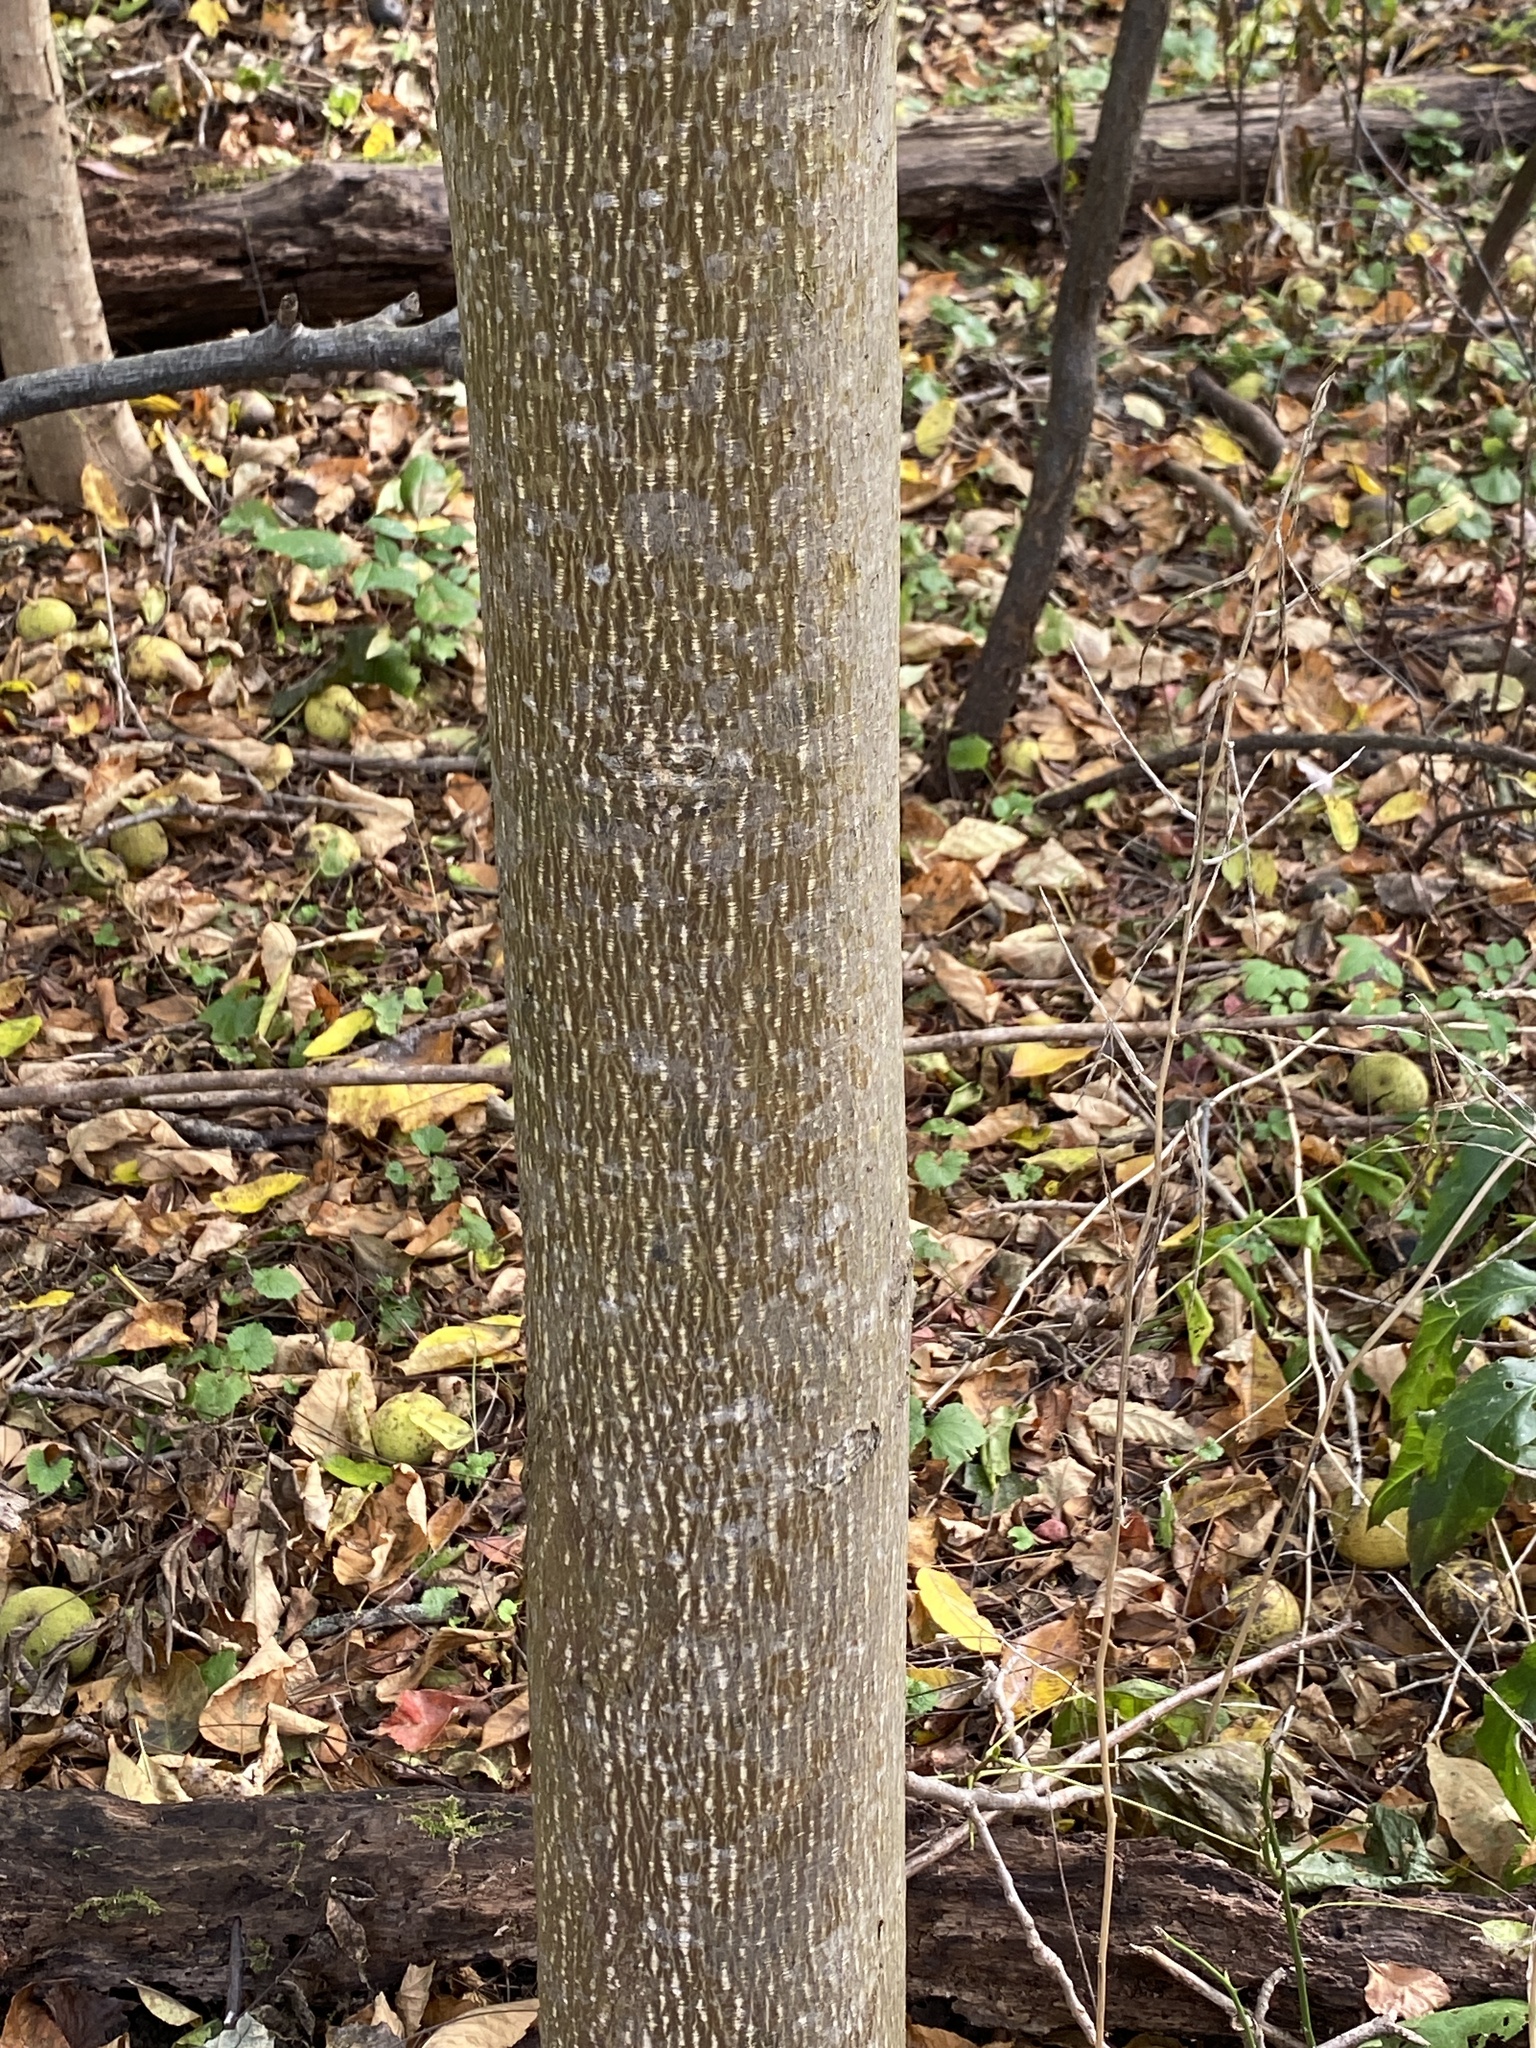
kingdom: Plantae
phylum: Tracheophyta
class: Magnoliopsida
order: Magnoliales
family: Magnoliaceae
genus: Liriodendron
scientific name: Liriodendron tulipifera
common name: Tulip tree
